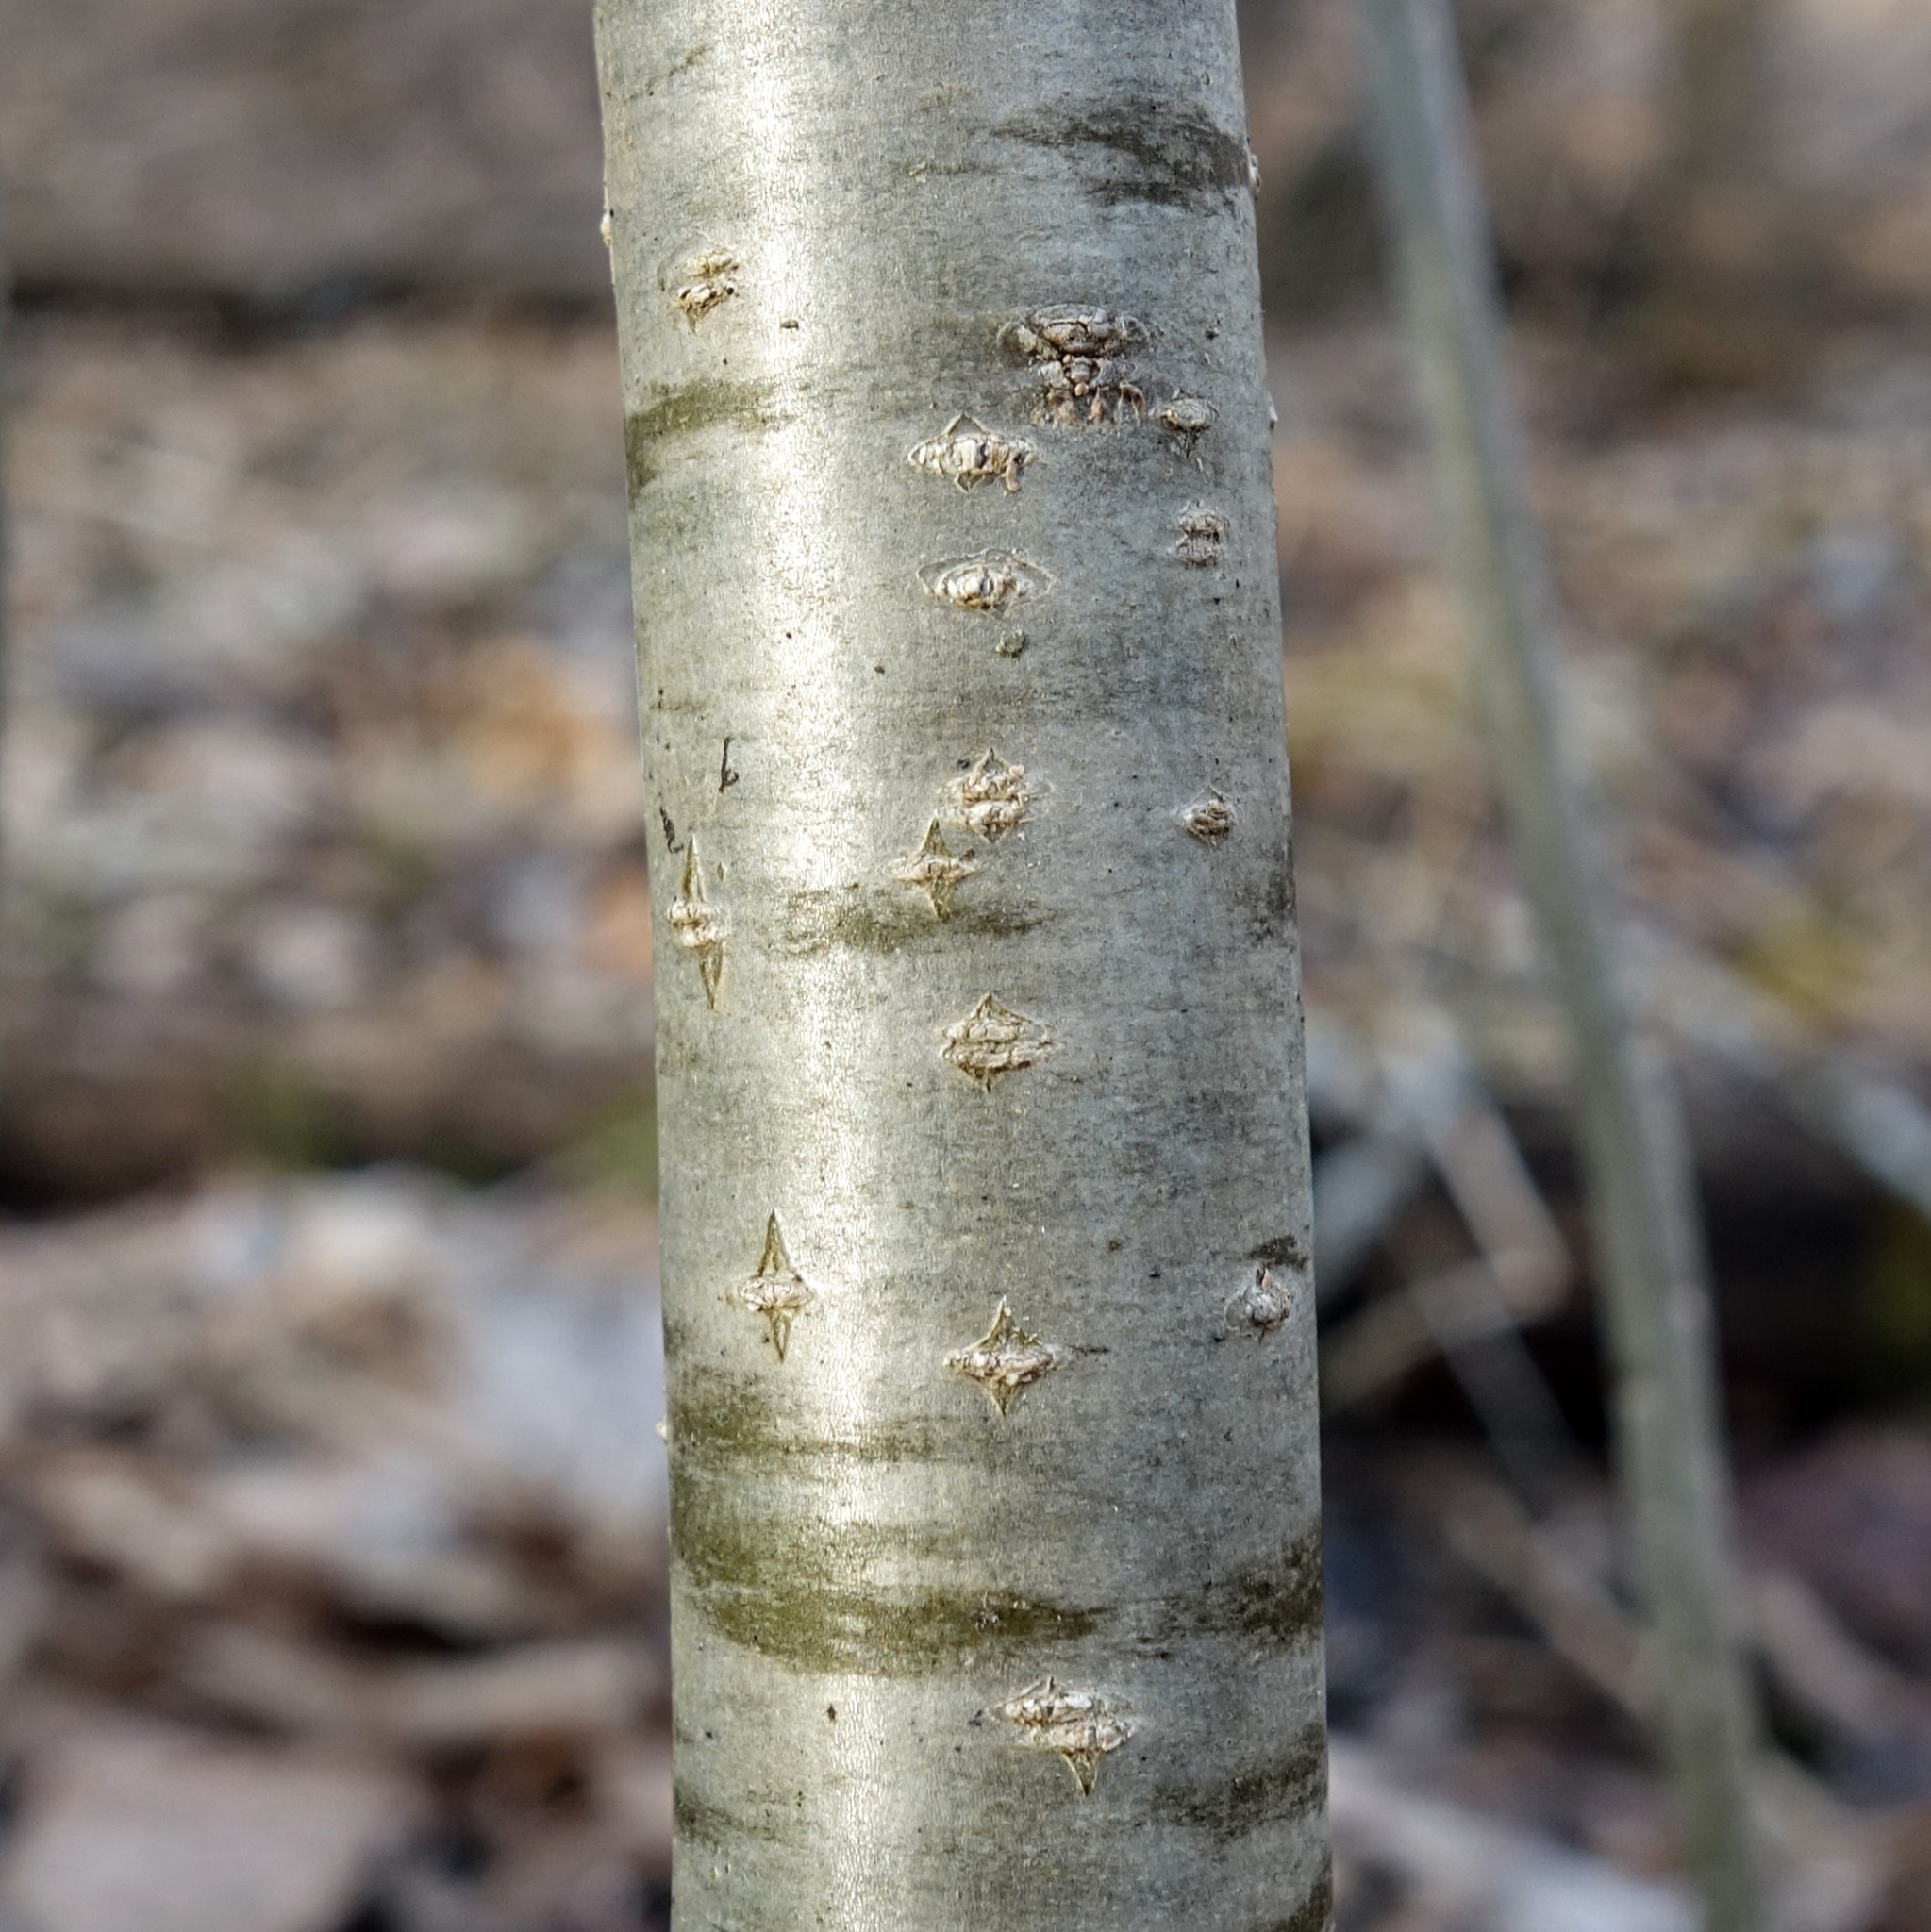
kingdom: Plantae
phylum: Tracheophyta
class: Magnoliopsida
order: Aquifoliales
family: Aquifoliaceae
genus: Ilex
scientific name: Ilex verticillata
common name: Virginia winterberry
